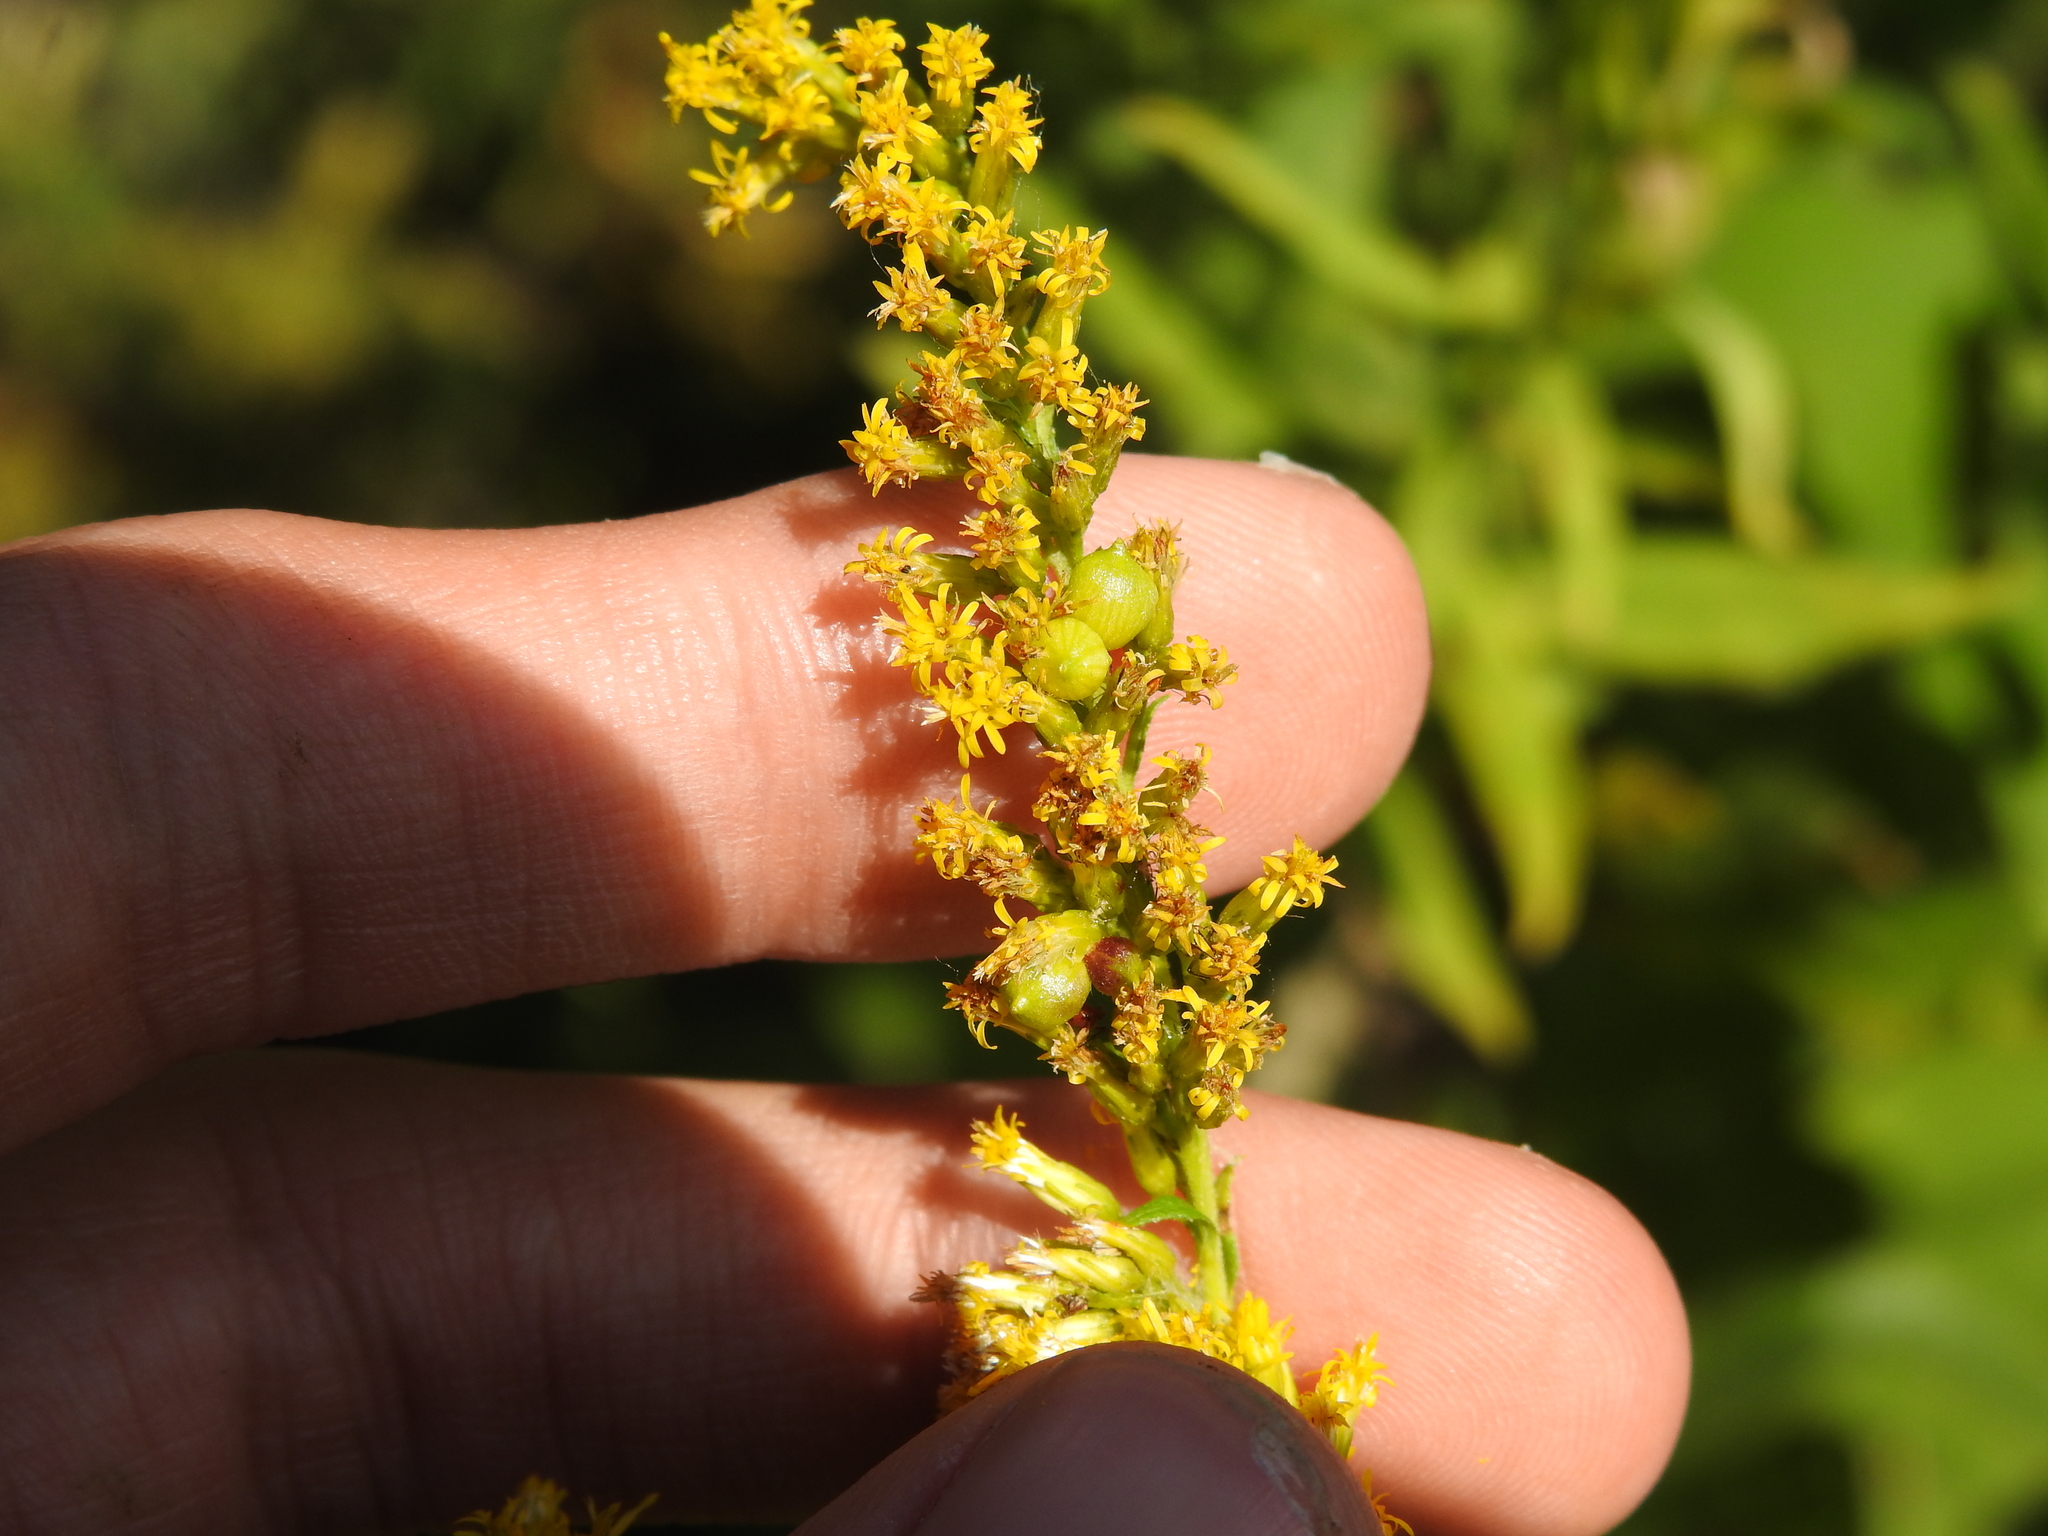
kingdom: Animalia
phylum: Arthropoda
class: Insecta
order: Diptera
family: Cecidomyiidae
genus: Schizomyia
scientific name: Schizomyia racemicola
